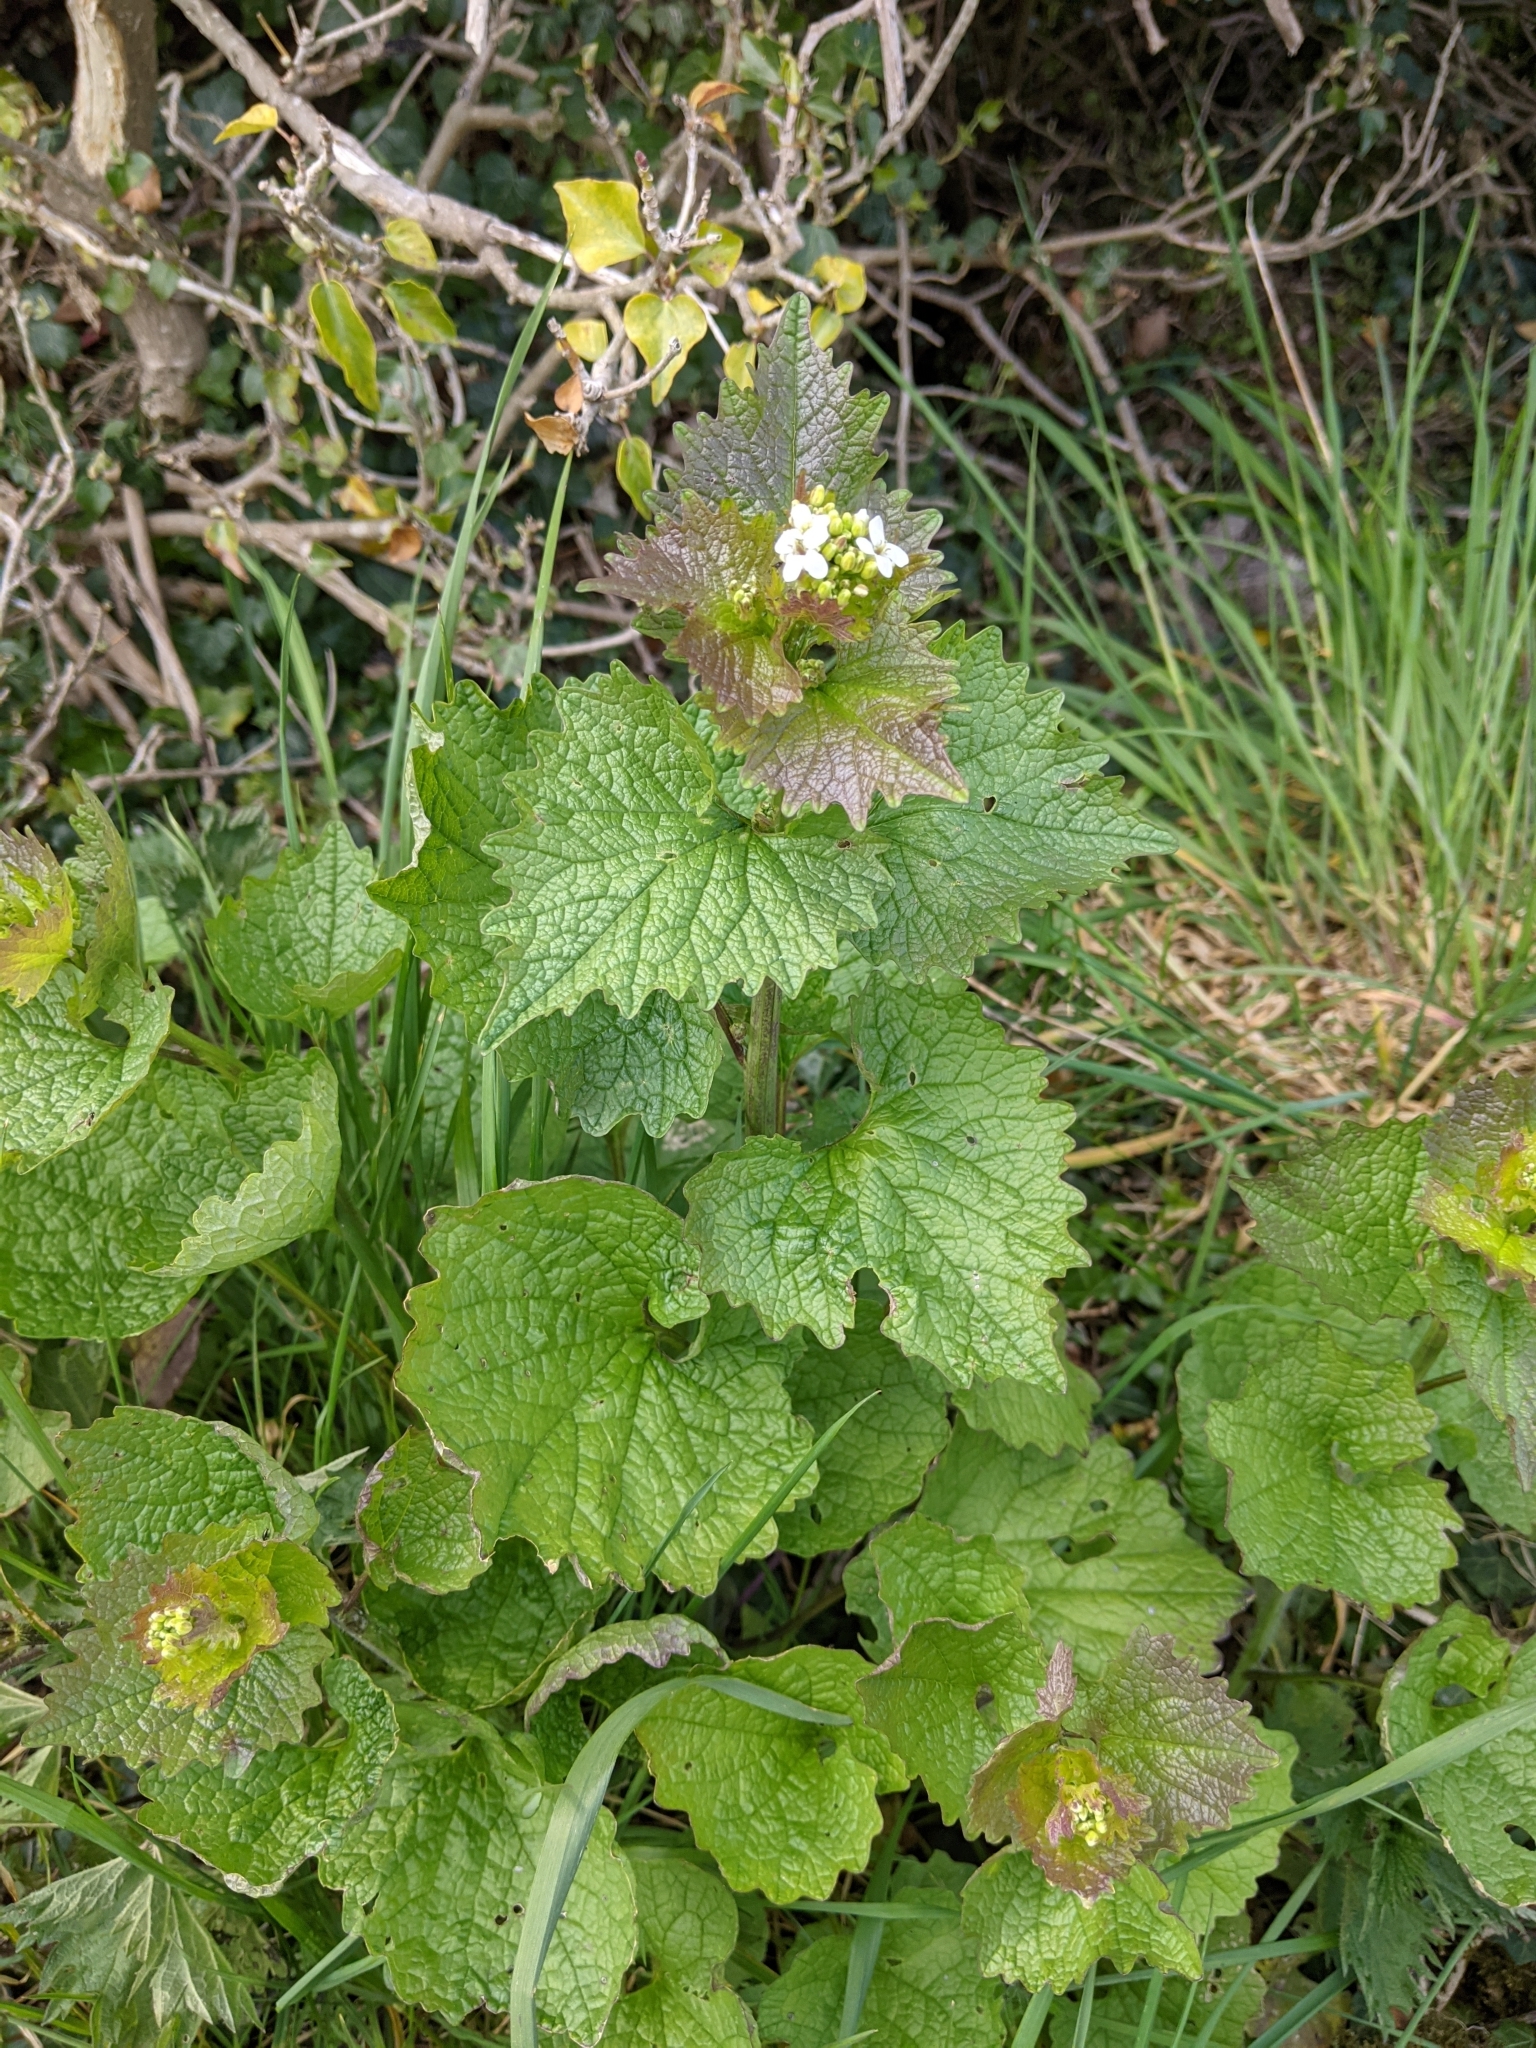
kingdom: Plantae
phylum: Tracheophyta
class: Magnoliopsida
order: Brassicales
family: Brassicaceae
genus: Alliaria
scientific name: Alliaria petiolata
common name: Garlic mustard
